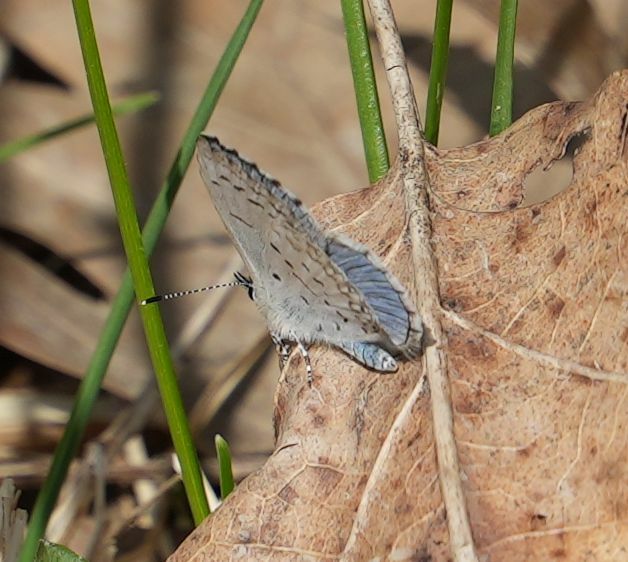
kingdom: Animalia
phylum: Arthropoda
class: Insecta
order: Lepidoptera
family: Lycaenidae
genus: Celastrina
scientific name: Celastrina lucia
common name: Lucia azure
